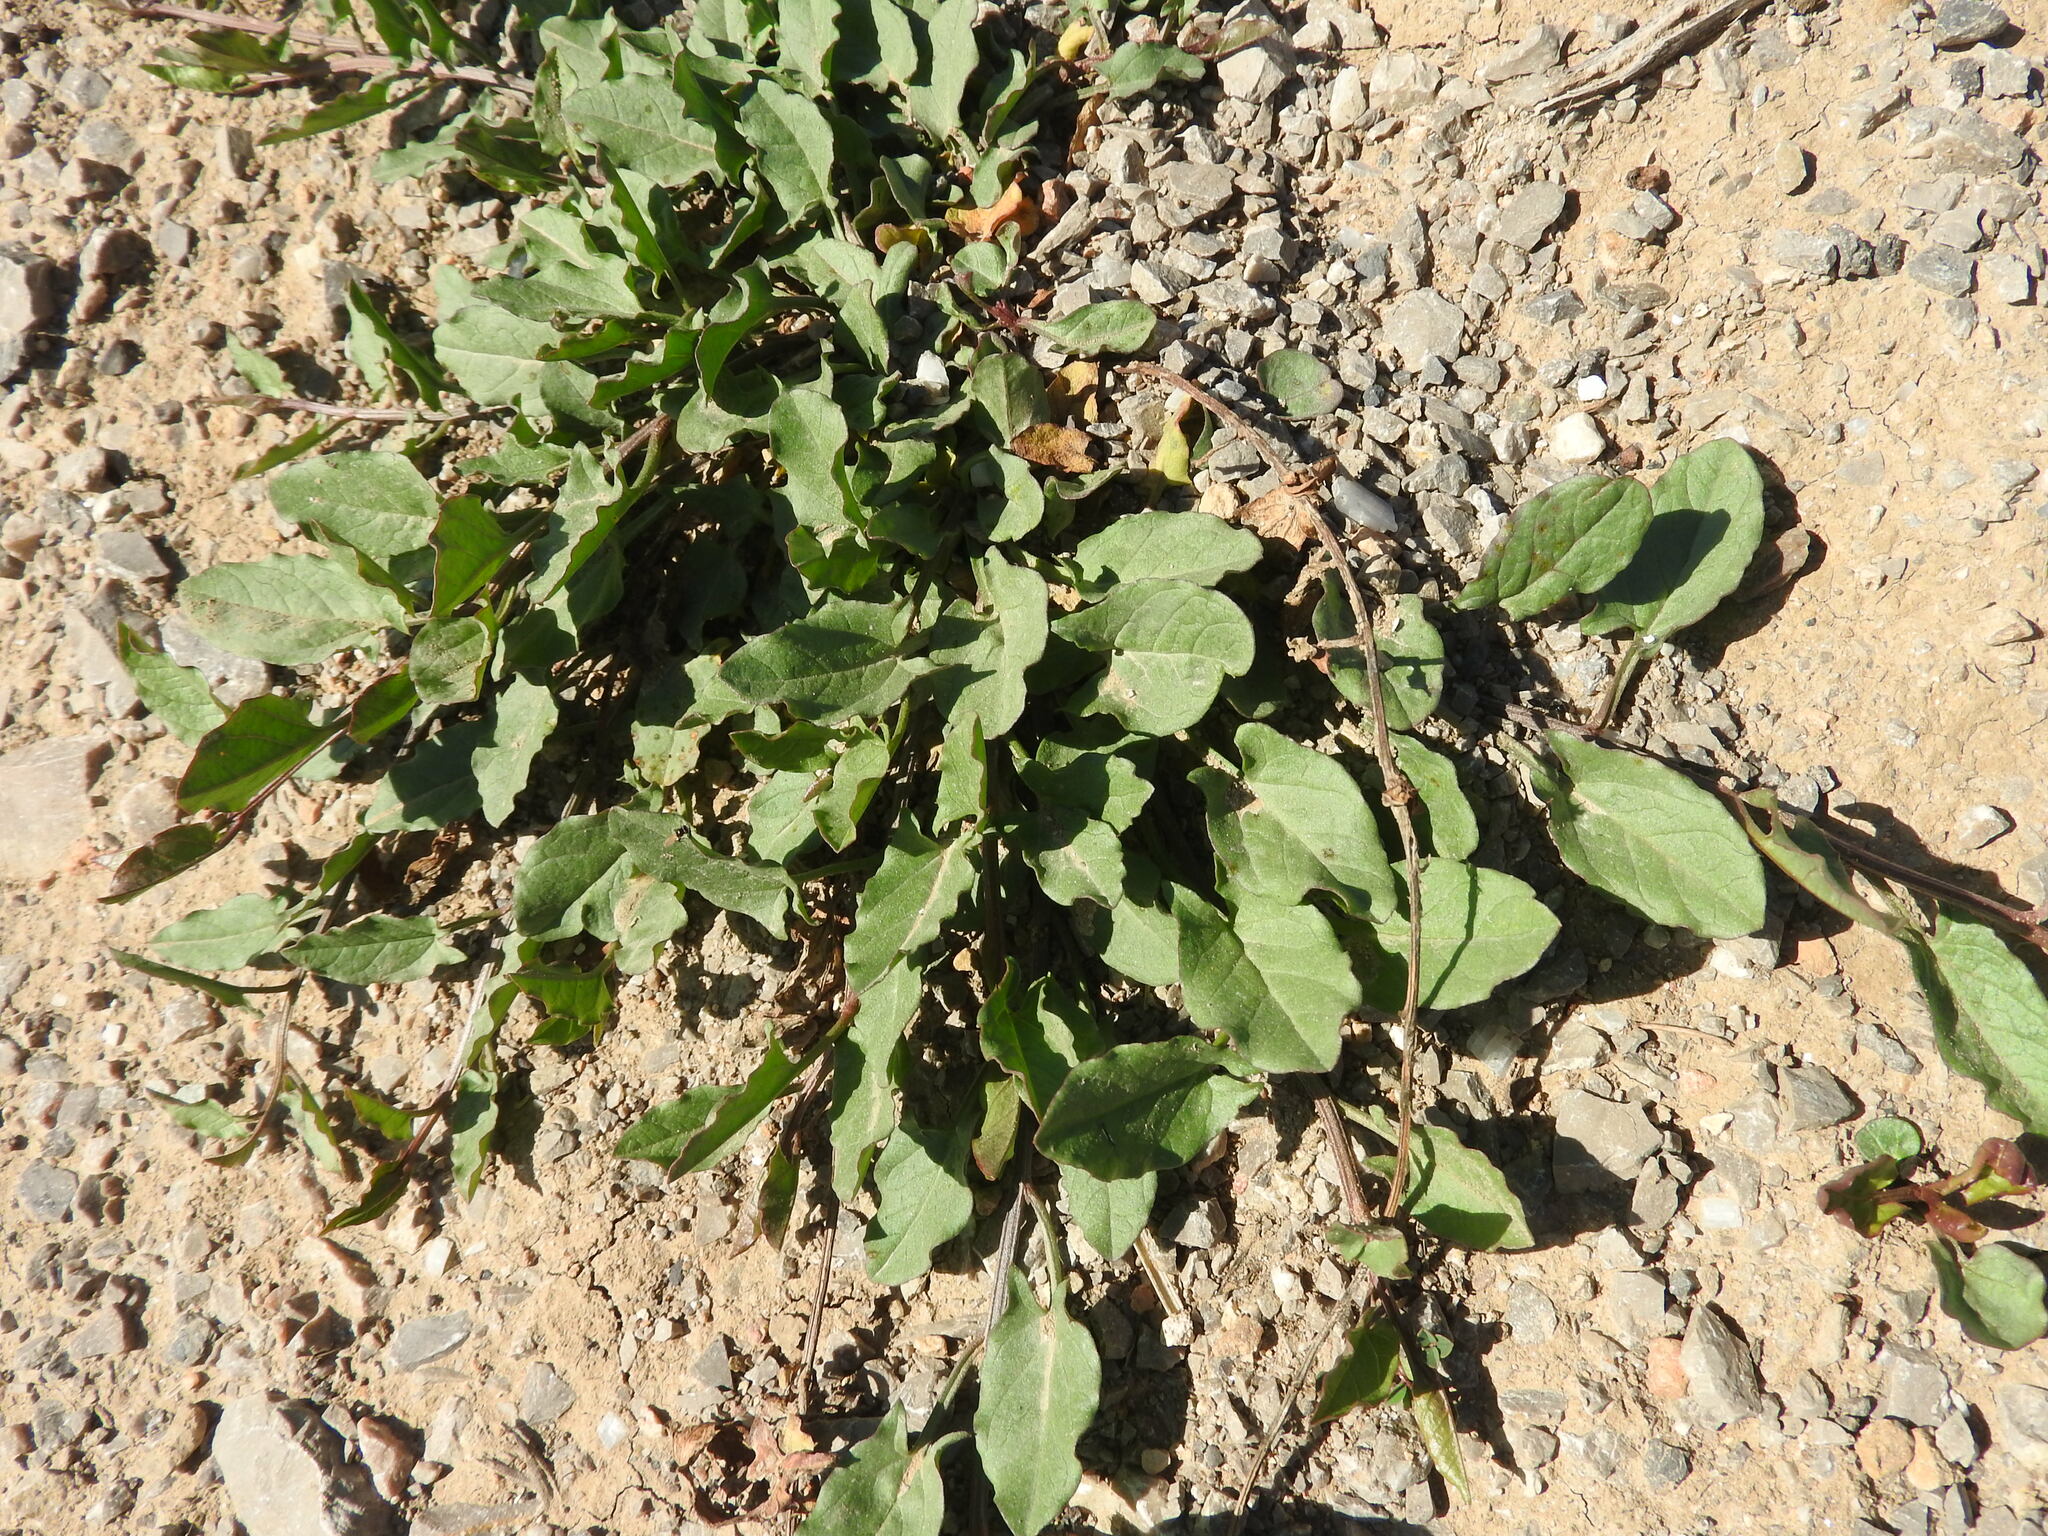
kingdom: Plantae
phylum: Tracheophyta
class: Magnoliopsida
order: Solanales
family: Convolvulaceae
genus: Convolvulus
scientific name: Convolvulus arvensis
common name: Field bindweed
